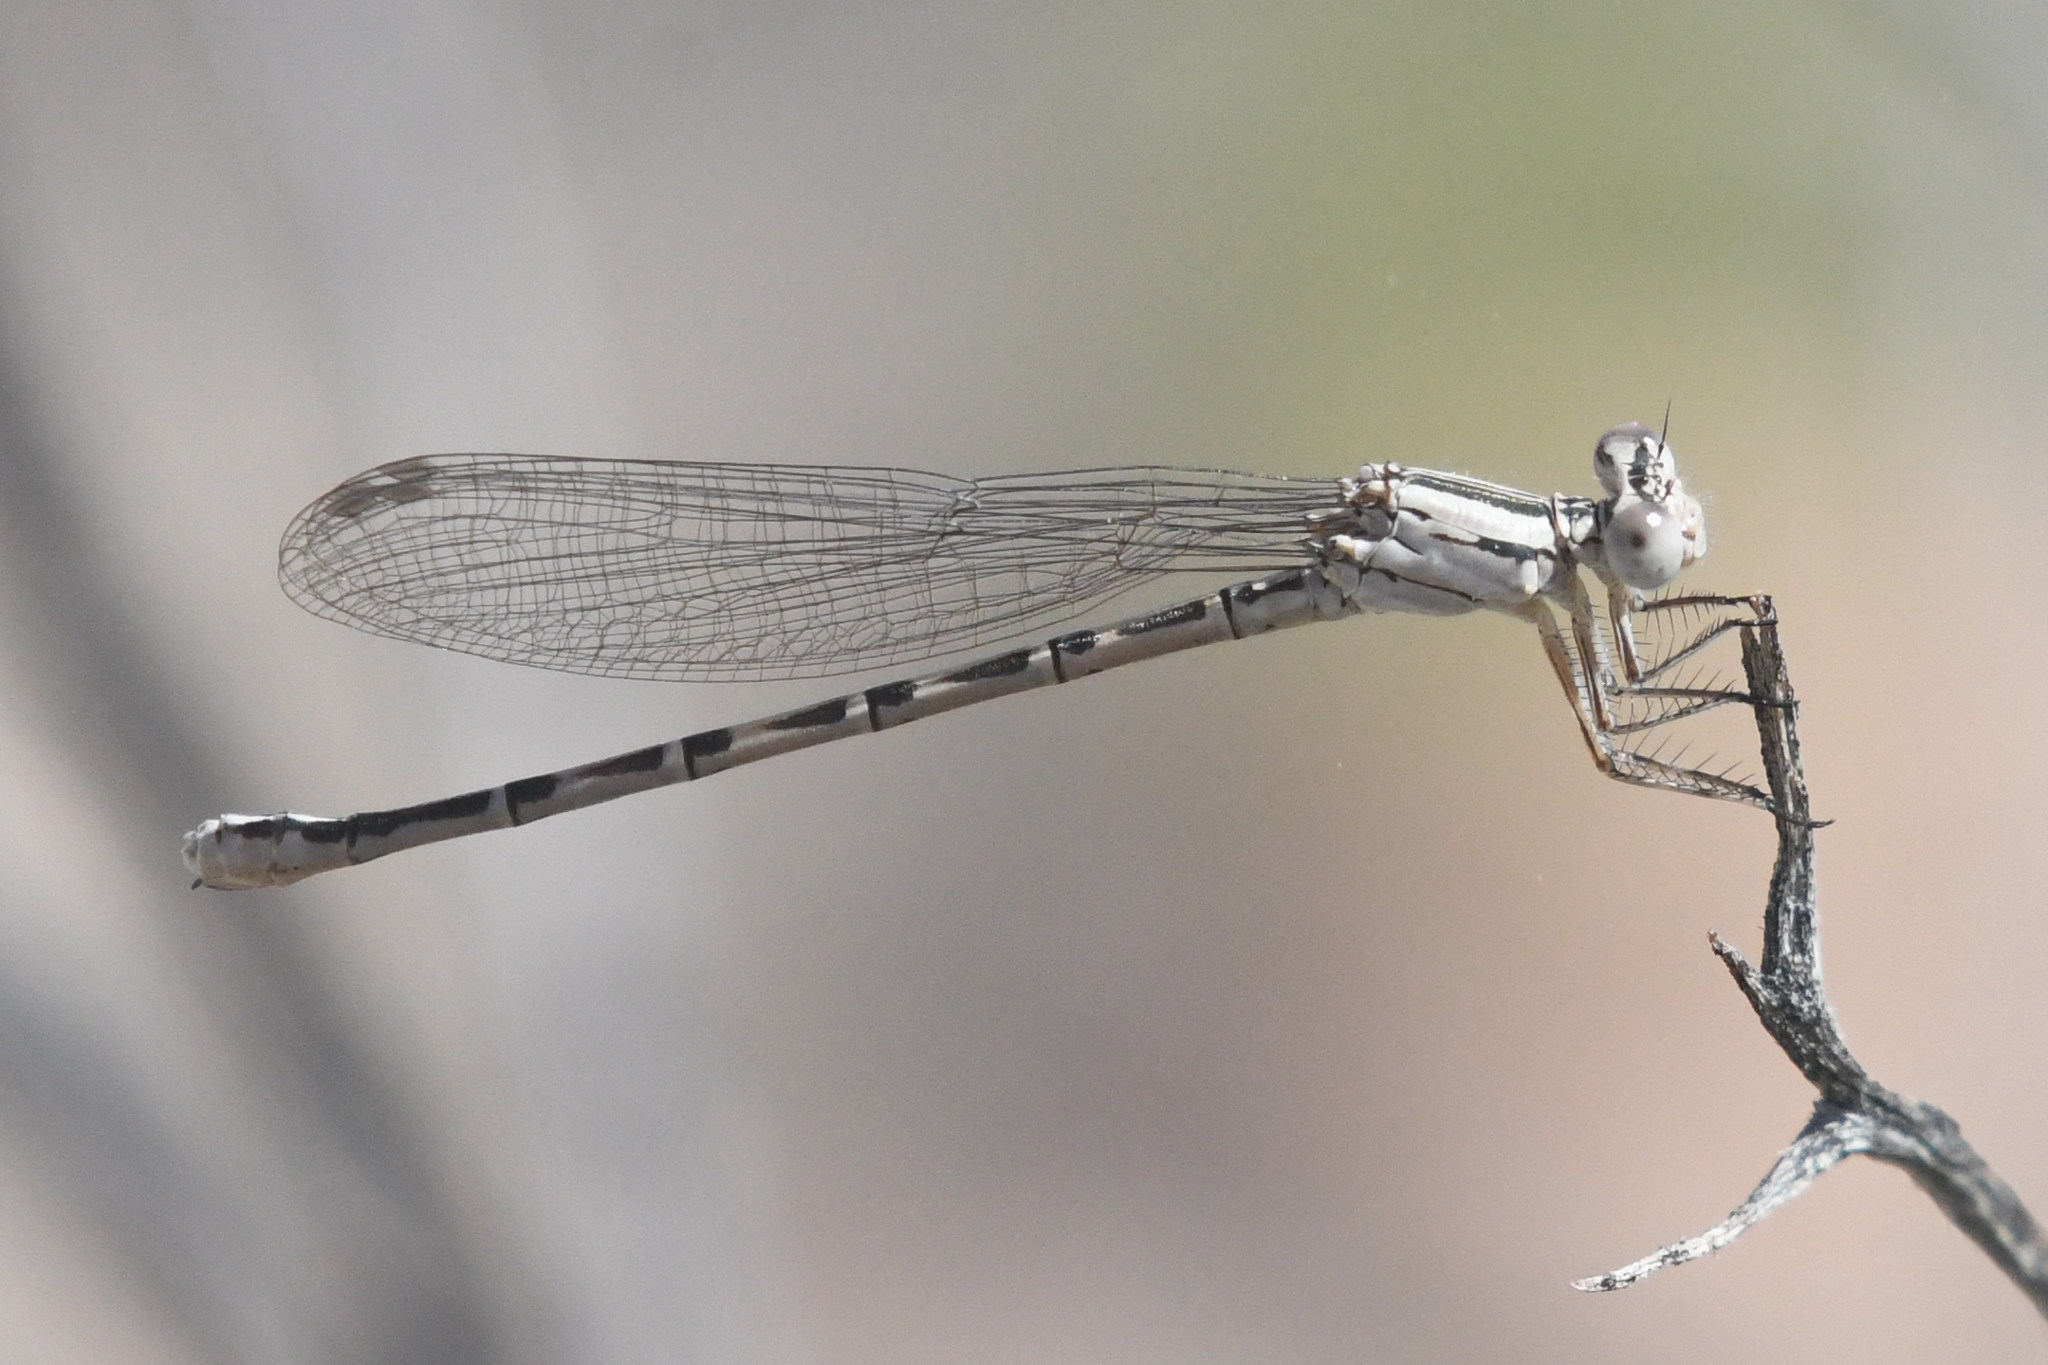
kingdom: Animalia
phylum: Arthropoda
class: Insecta
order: Odonata
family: Coenagrionidae
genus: Argia
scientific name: Argia alberta
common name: Paiute dancer
